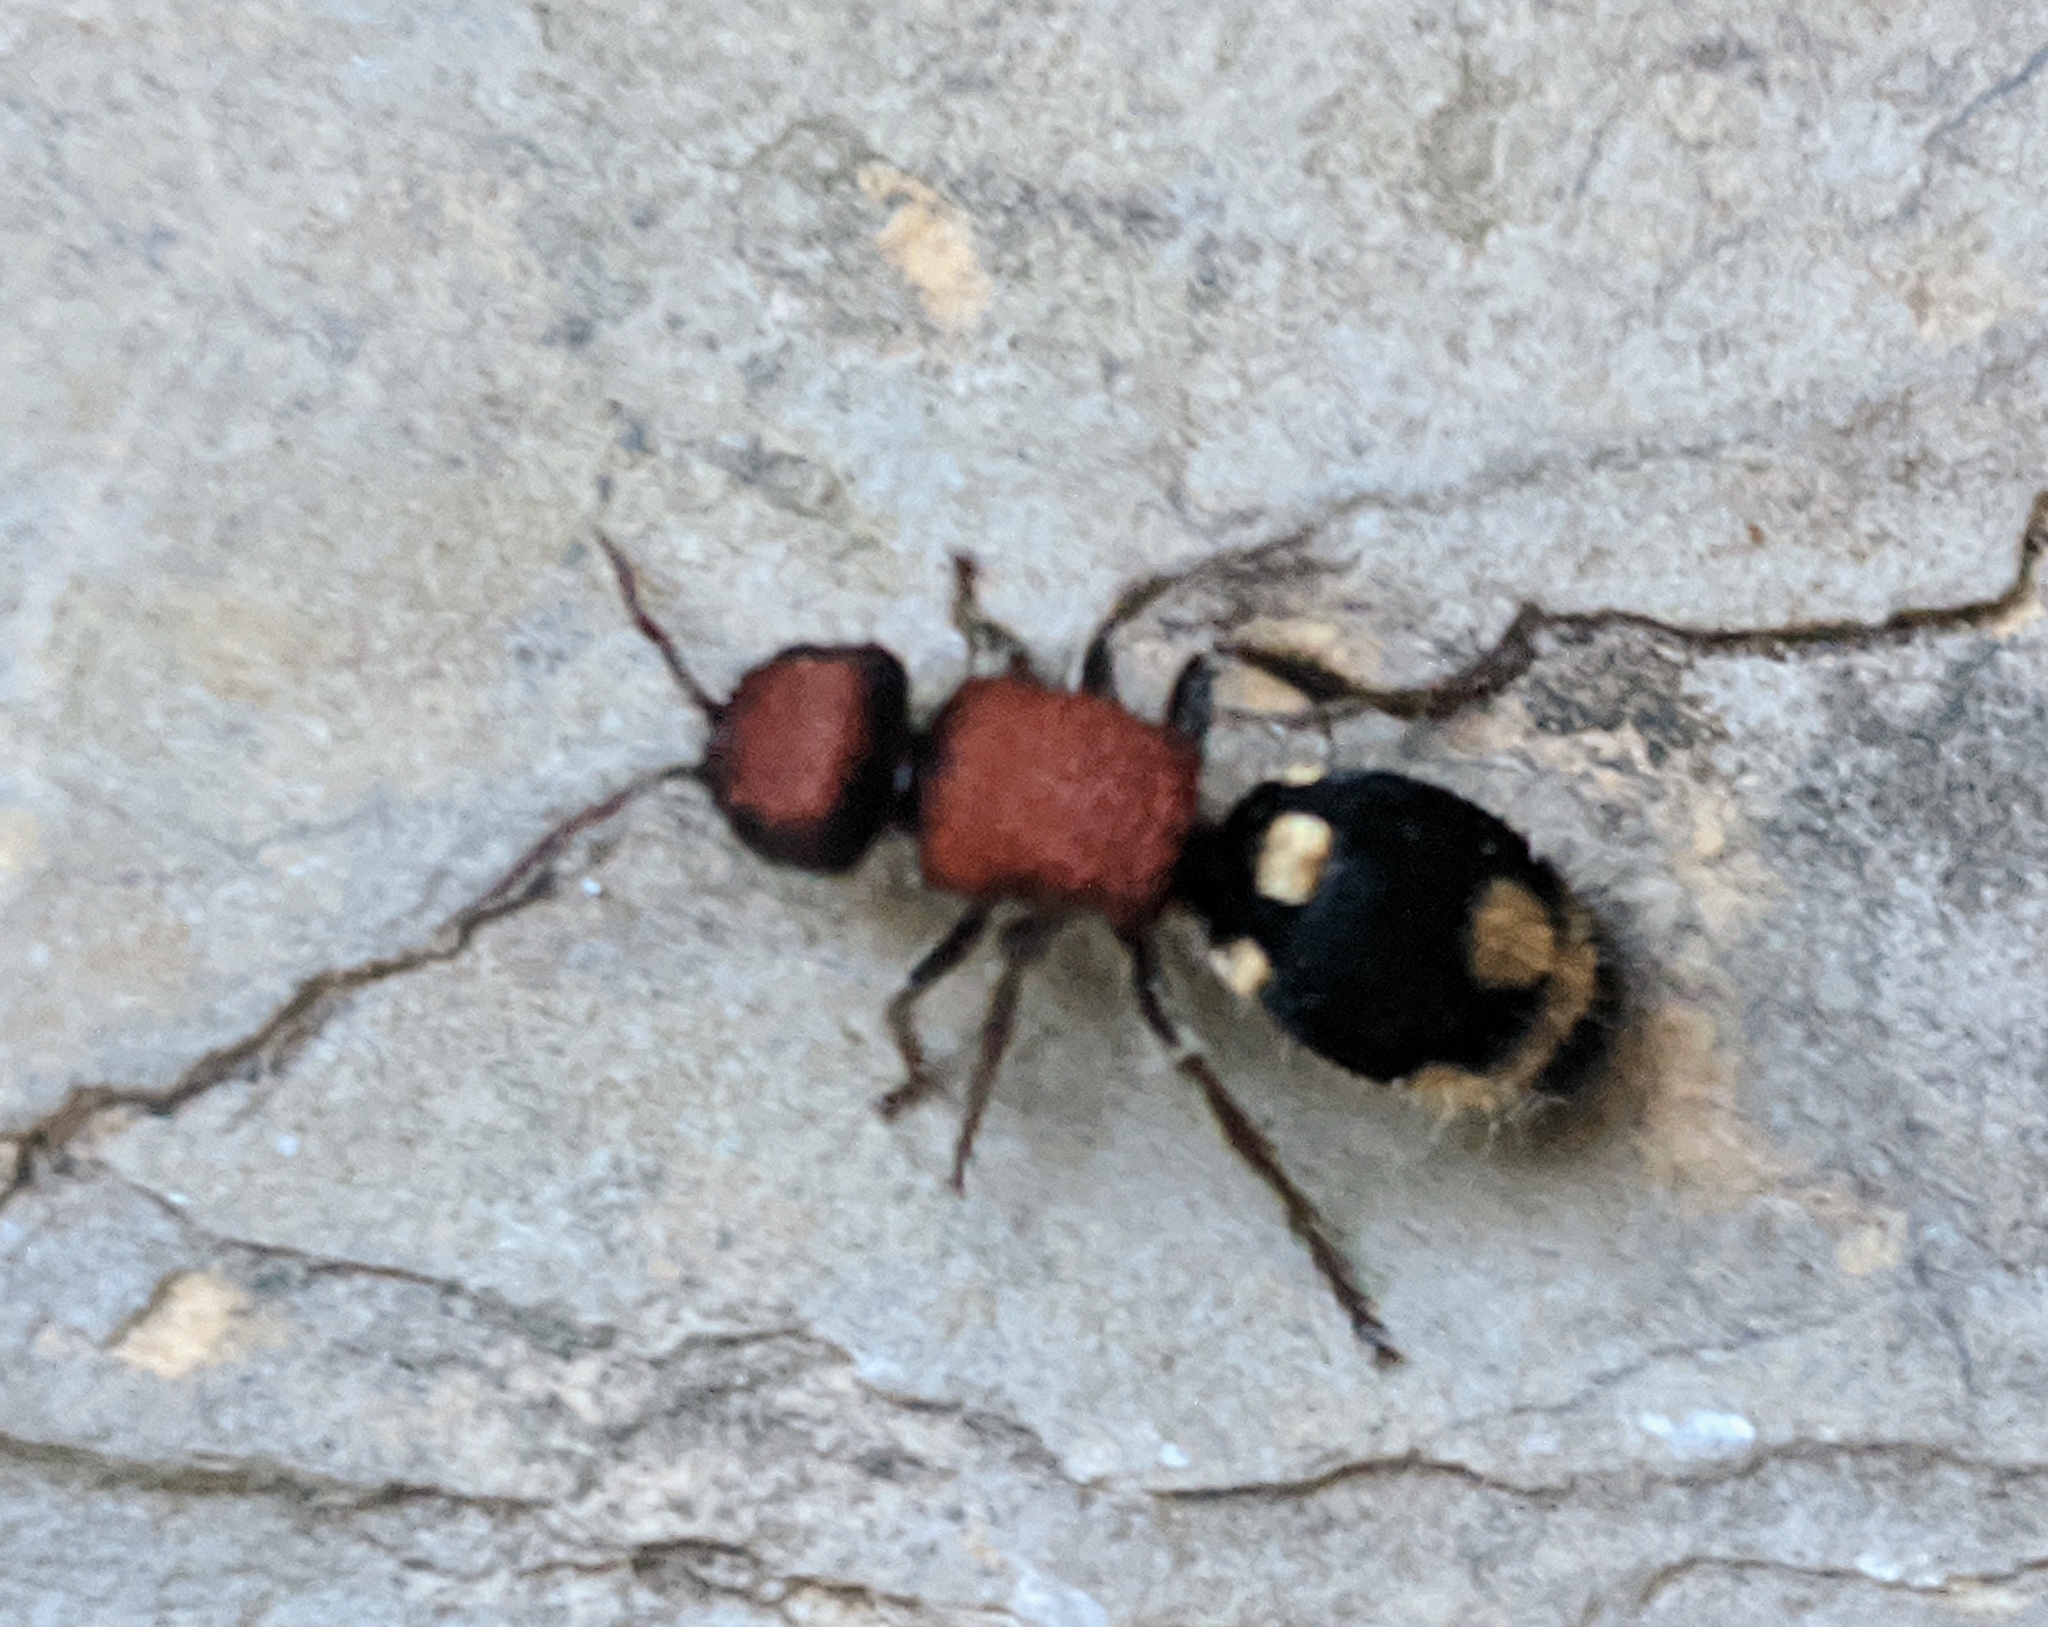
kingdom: Animalia
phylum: Arthropoda
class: Insecta
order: Hymenoptera
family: Mutillidae
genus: Ronisia
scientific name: Ronisia brutia
